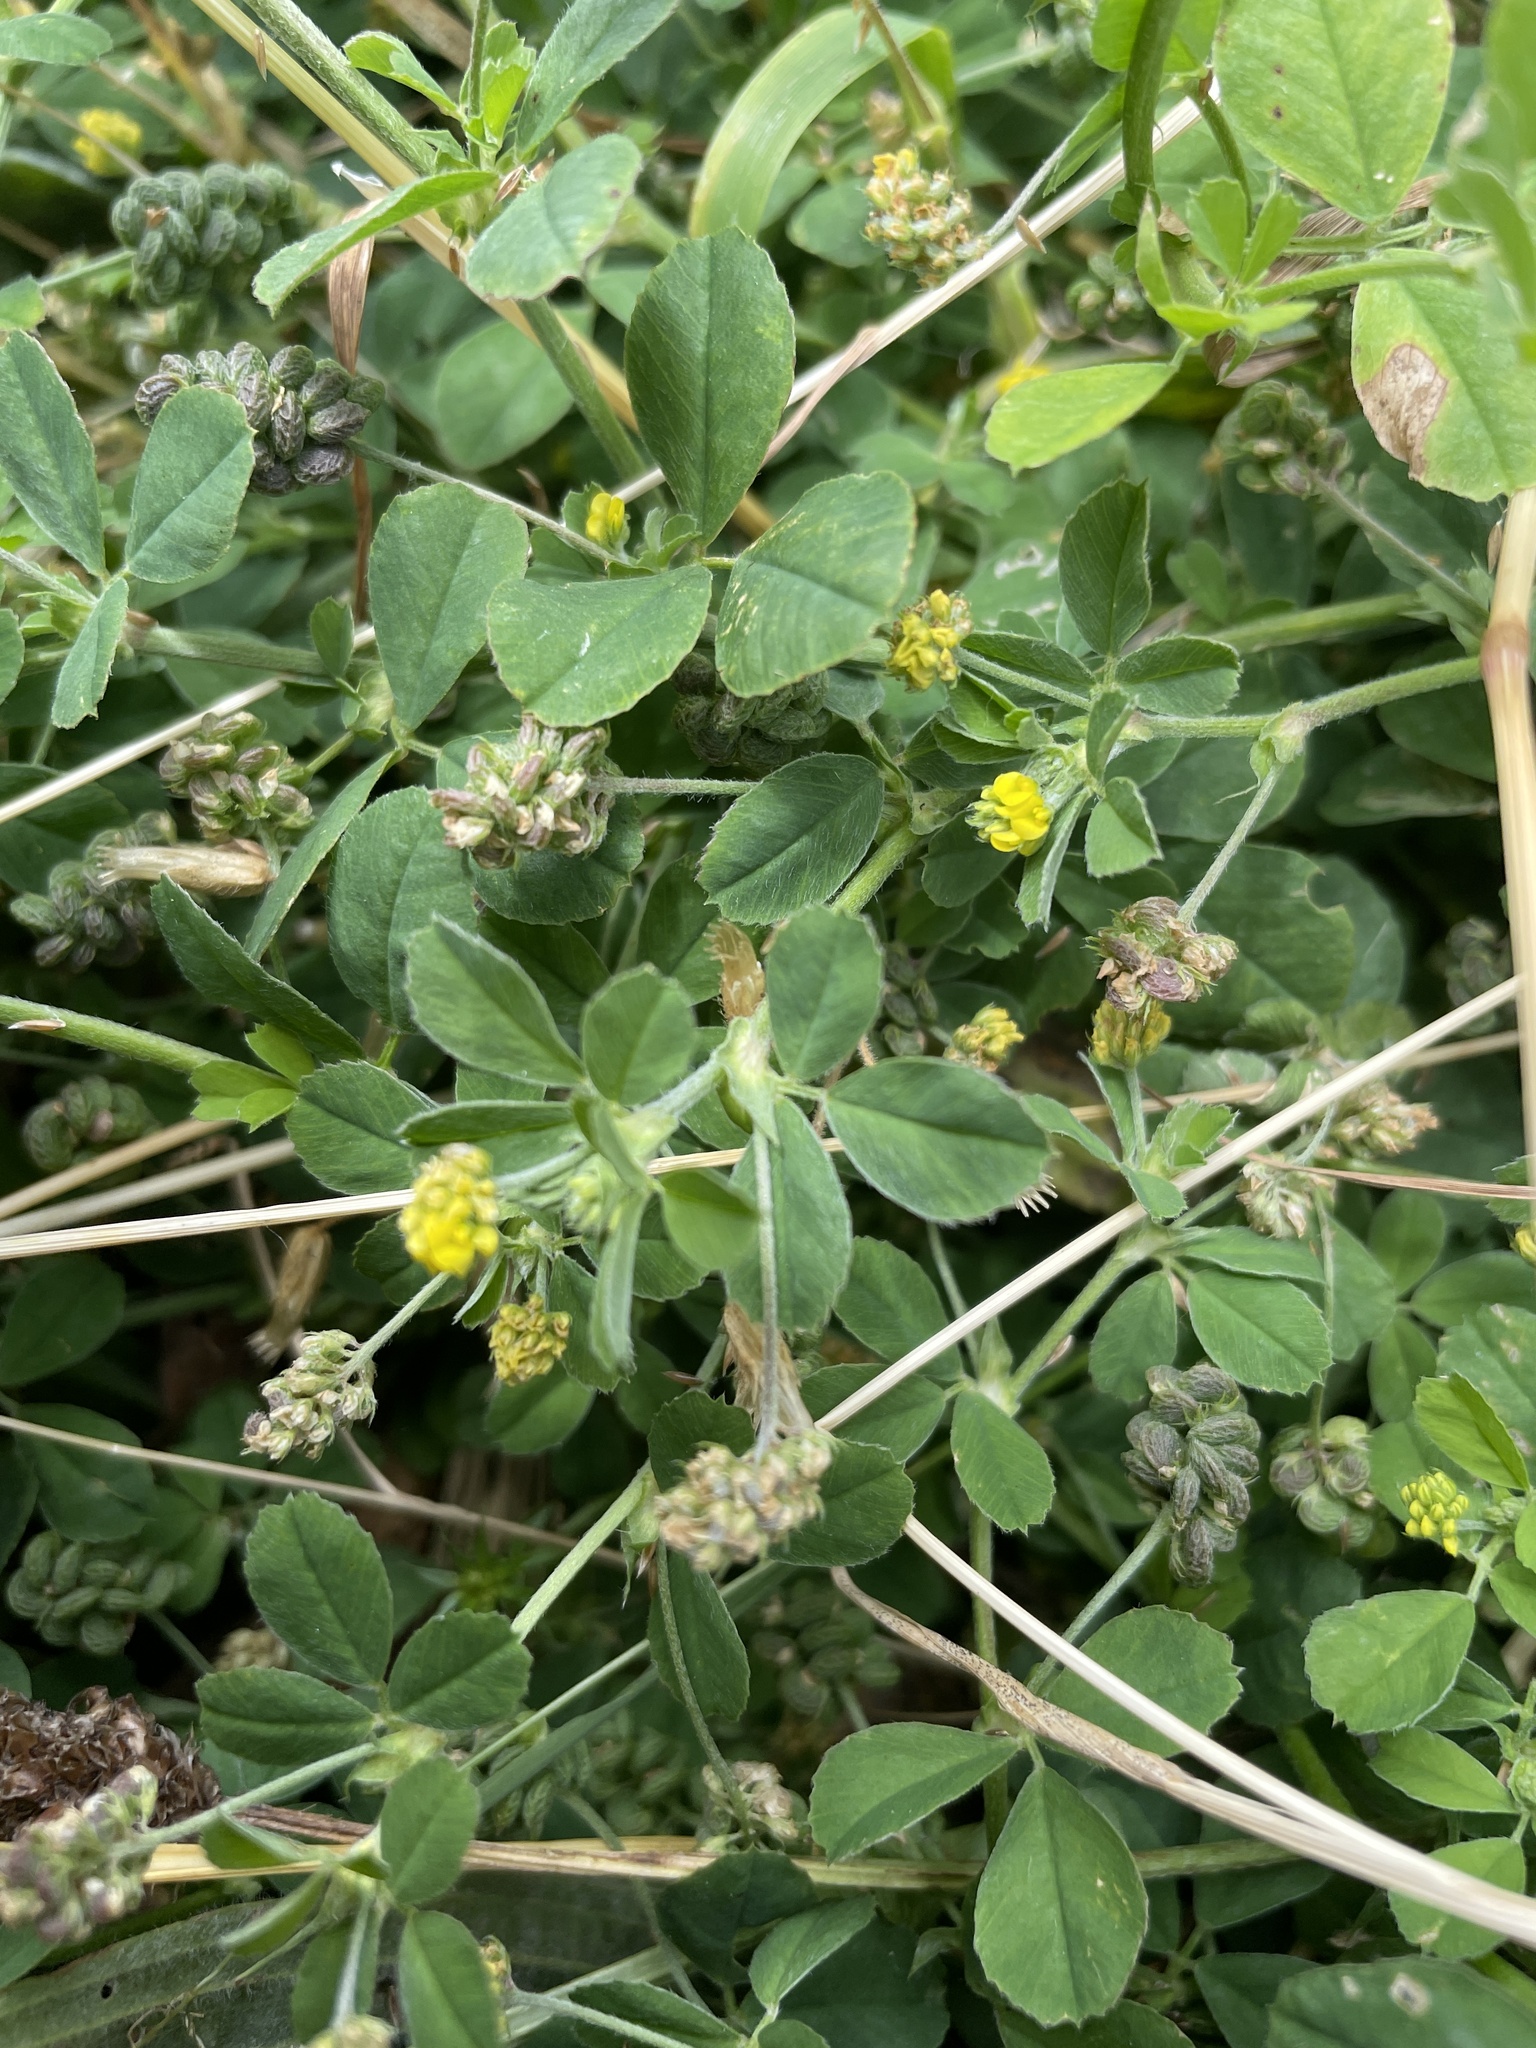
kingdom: Plantae
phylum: Tracheophyta
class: Magnoliopsida
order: Fabales
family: Fabaceae
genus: Medicago
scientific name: Medicago lupulina
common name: Black medick
